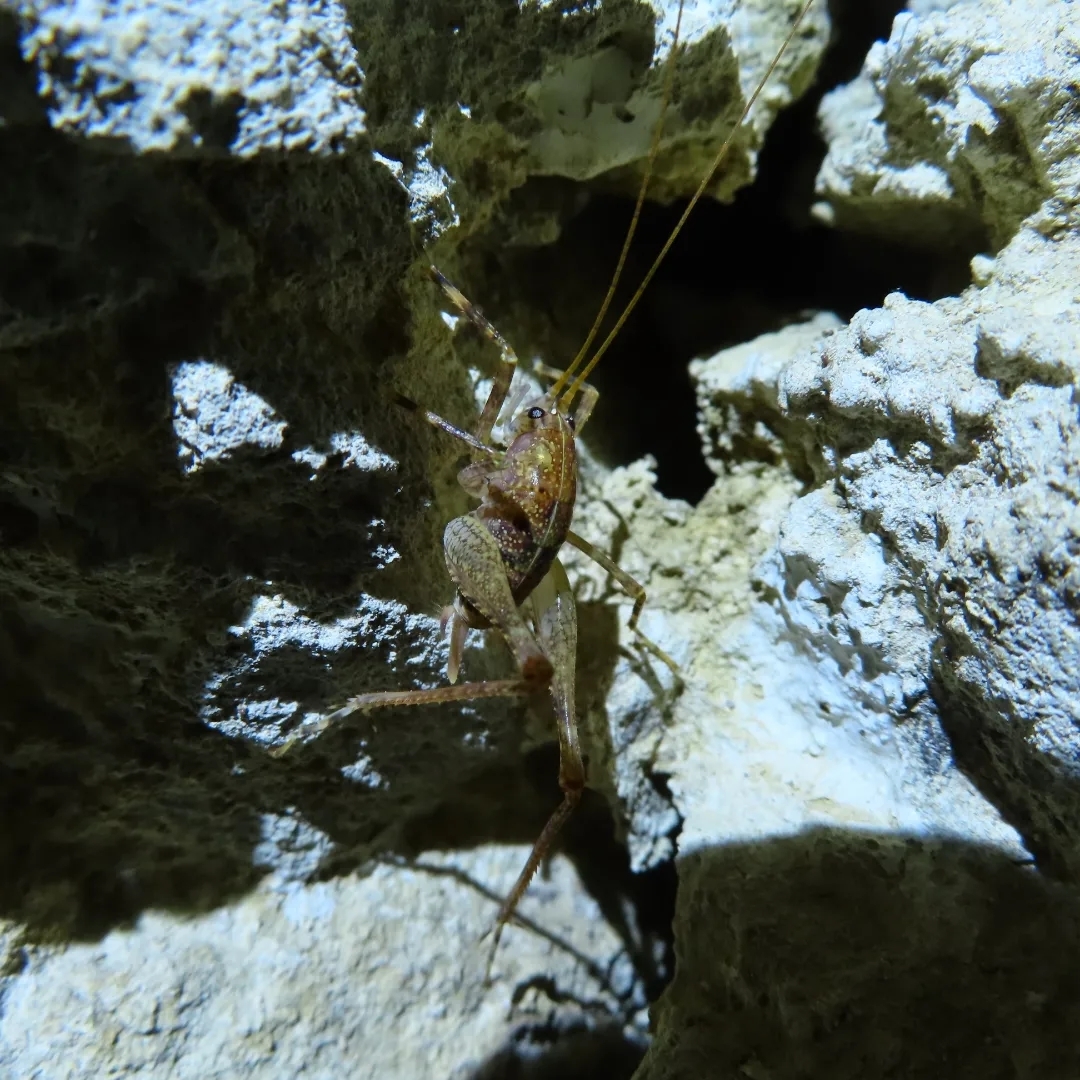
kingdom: Animalia
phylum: Arthropoda
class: Insecta
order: Orthoptera
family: Rhaphidophoridae
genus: Troglophilus
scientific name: Troglophilus cavicola
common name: Common cave-cricket
